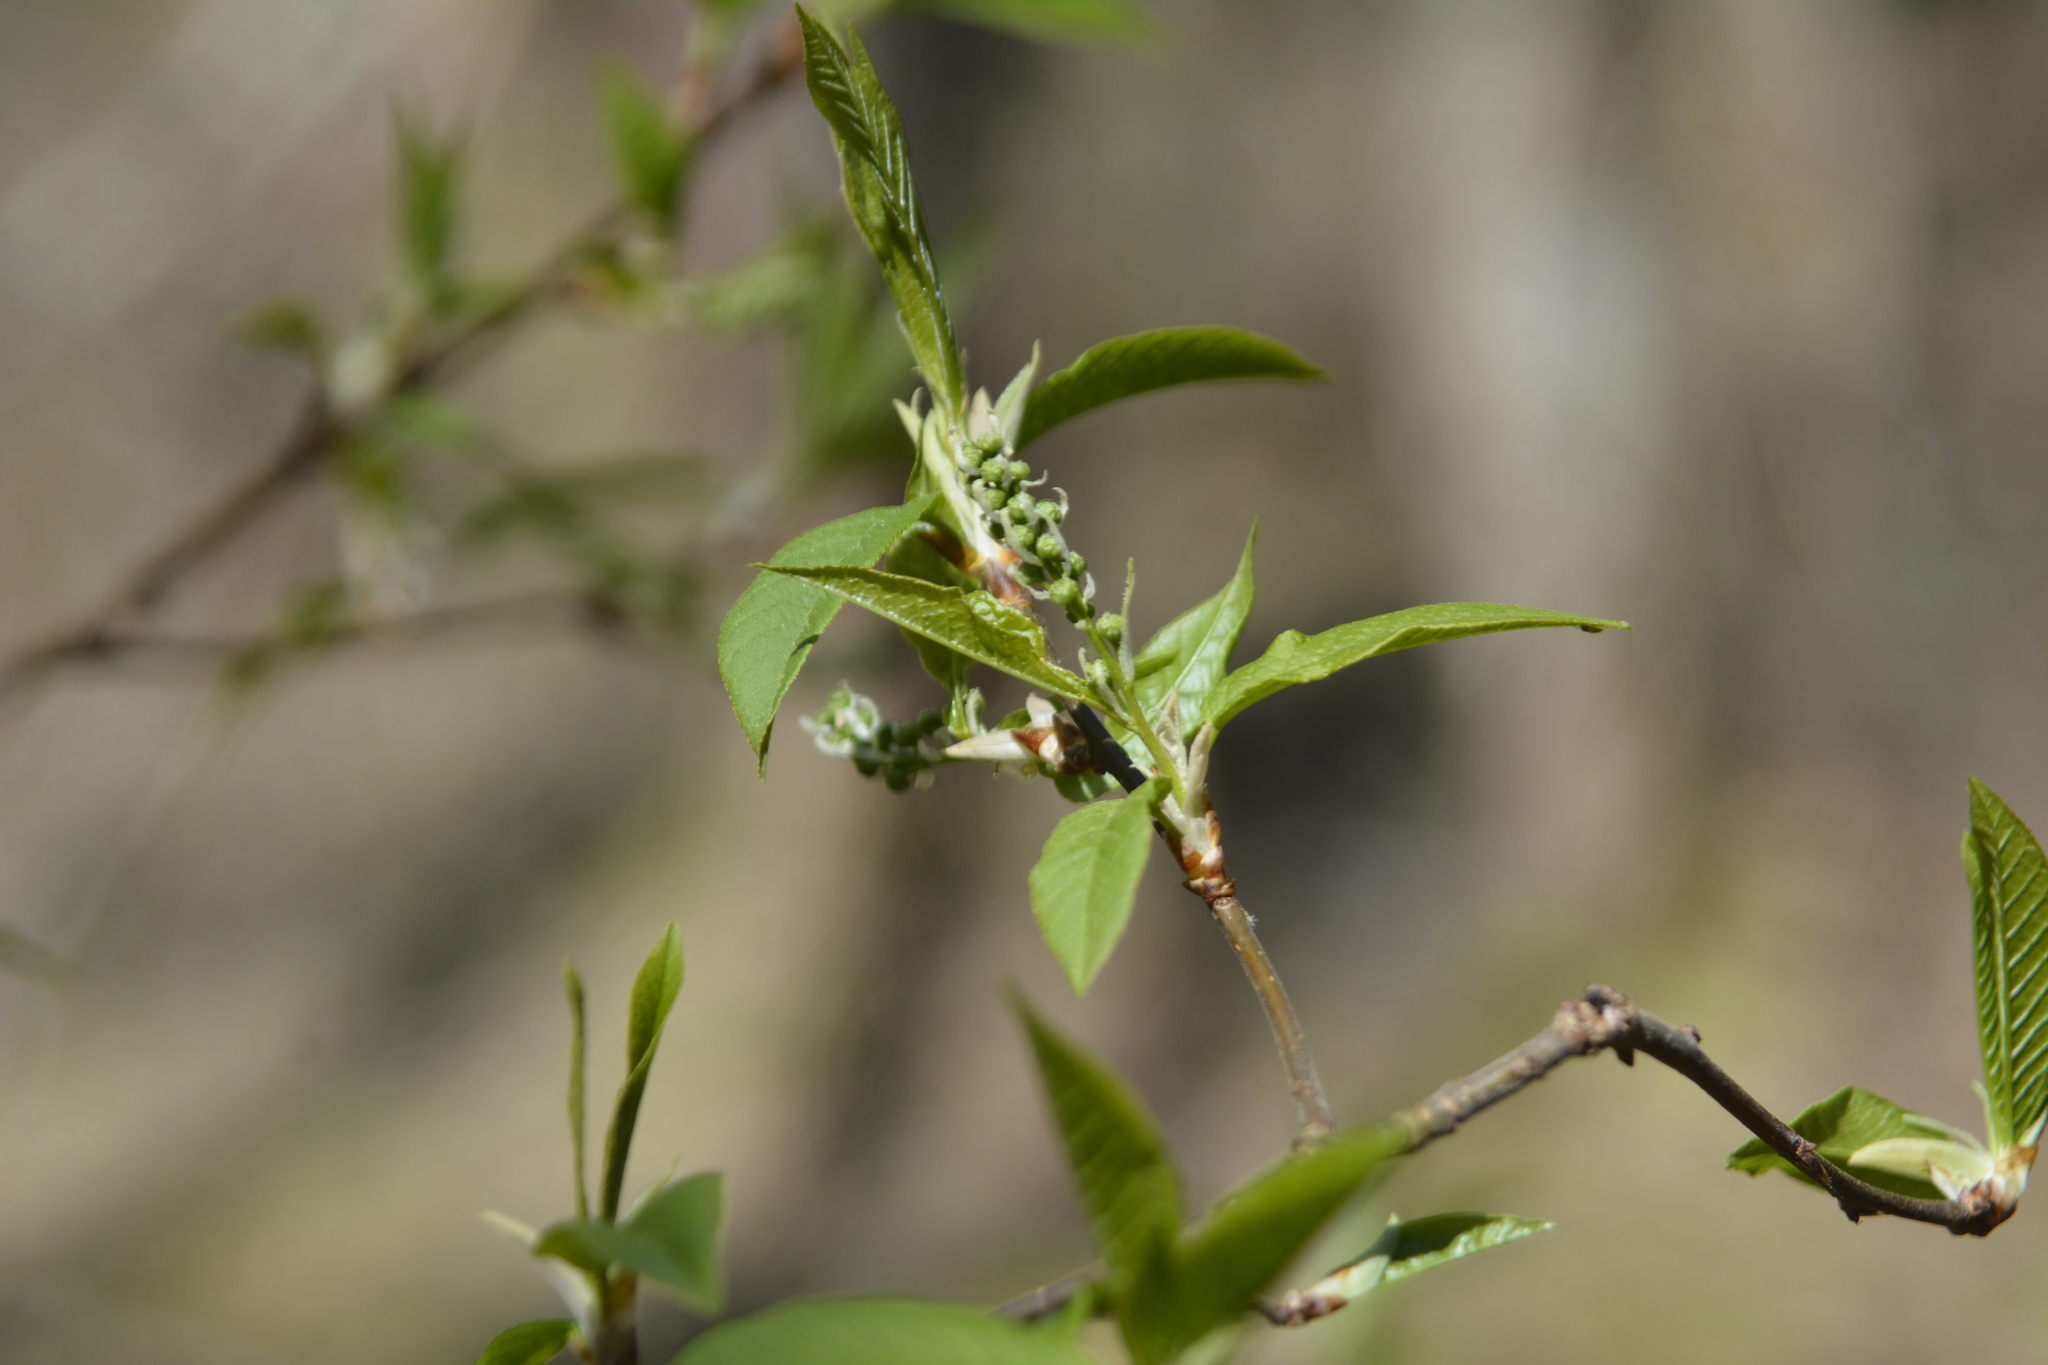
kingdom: Plantae
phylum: Tracheophyta
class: Magnoliopsida
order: Rosales
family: Rosaceae
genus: Prunus
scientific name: Prunus padus
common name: Bird cherry
